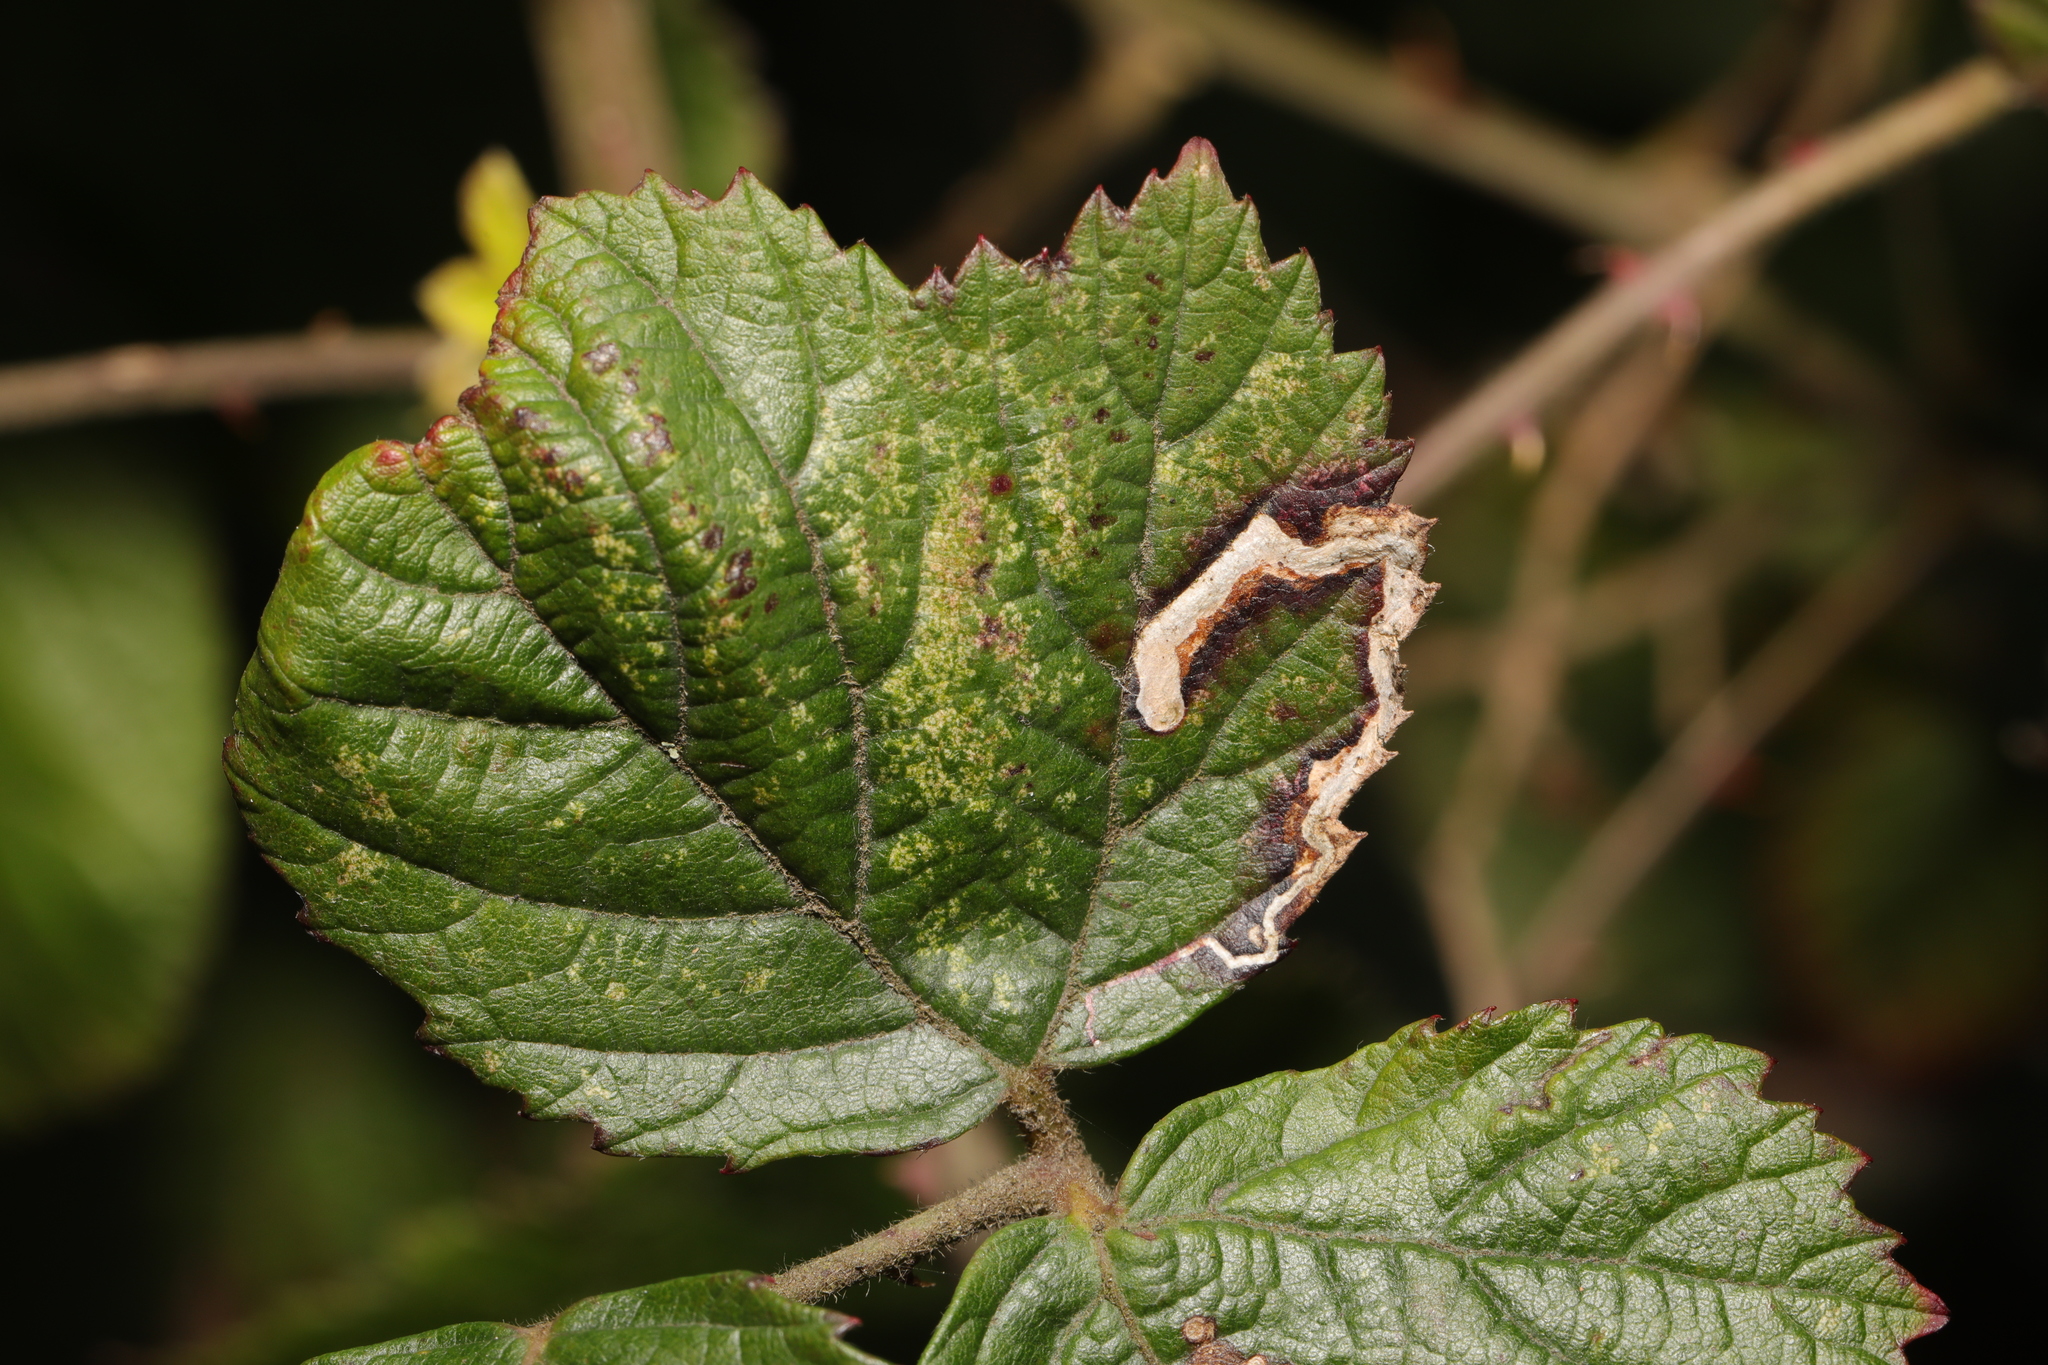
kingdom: Animalia
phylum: Arthropoda
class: Insecta
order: Lepidoptera
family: Nepticulidae
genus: Stigmella
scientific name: Stigmella aurella
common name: Golden pigmy
